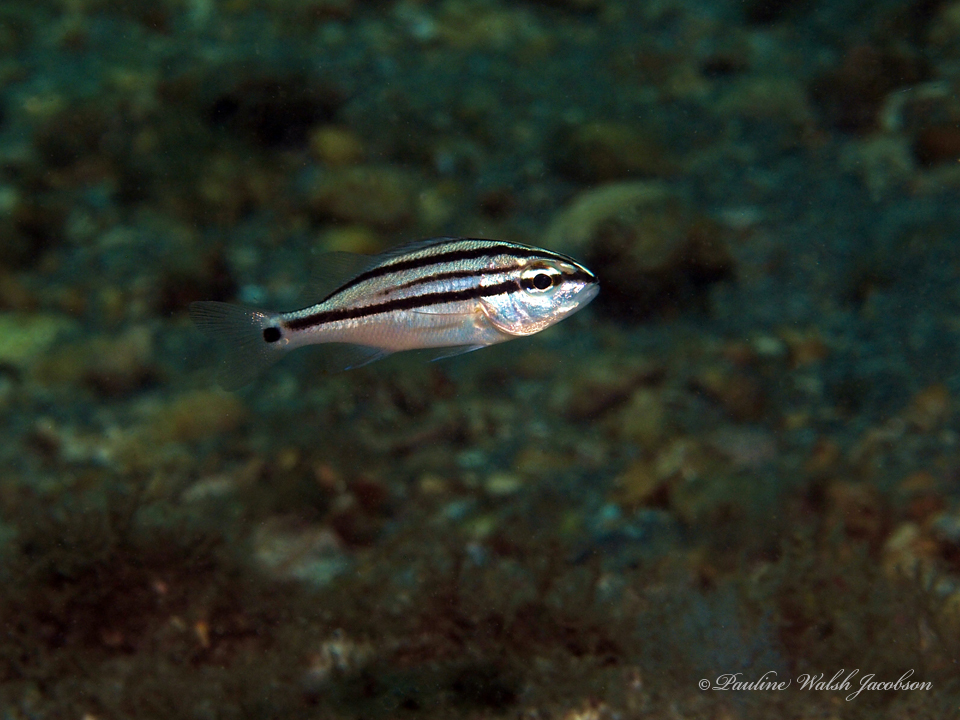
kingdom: Animalia
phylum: Chordata
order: Perciformes
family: Haemulidae
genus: Haemulon
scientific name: Haemulon carbonarium
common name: Caesar grunt
